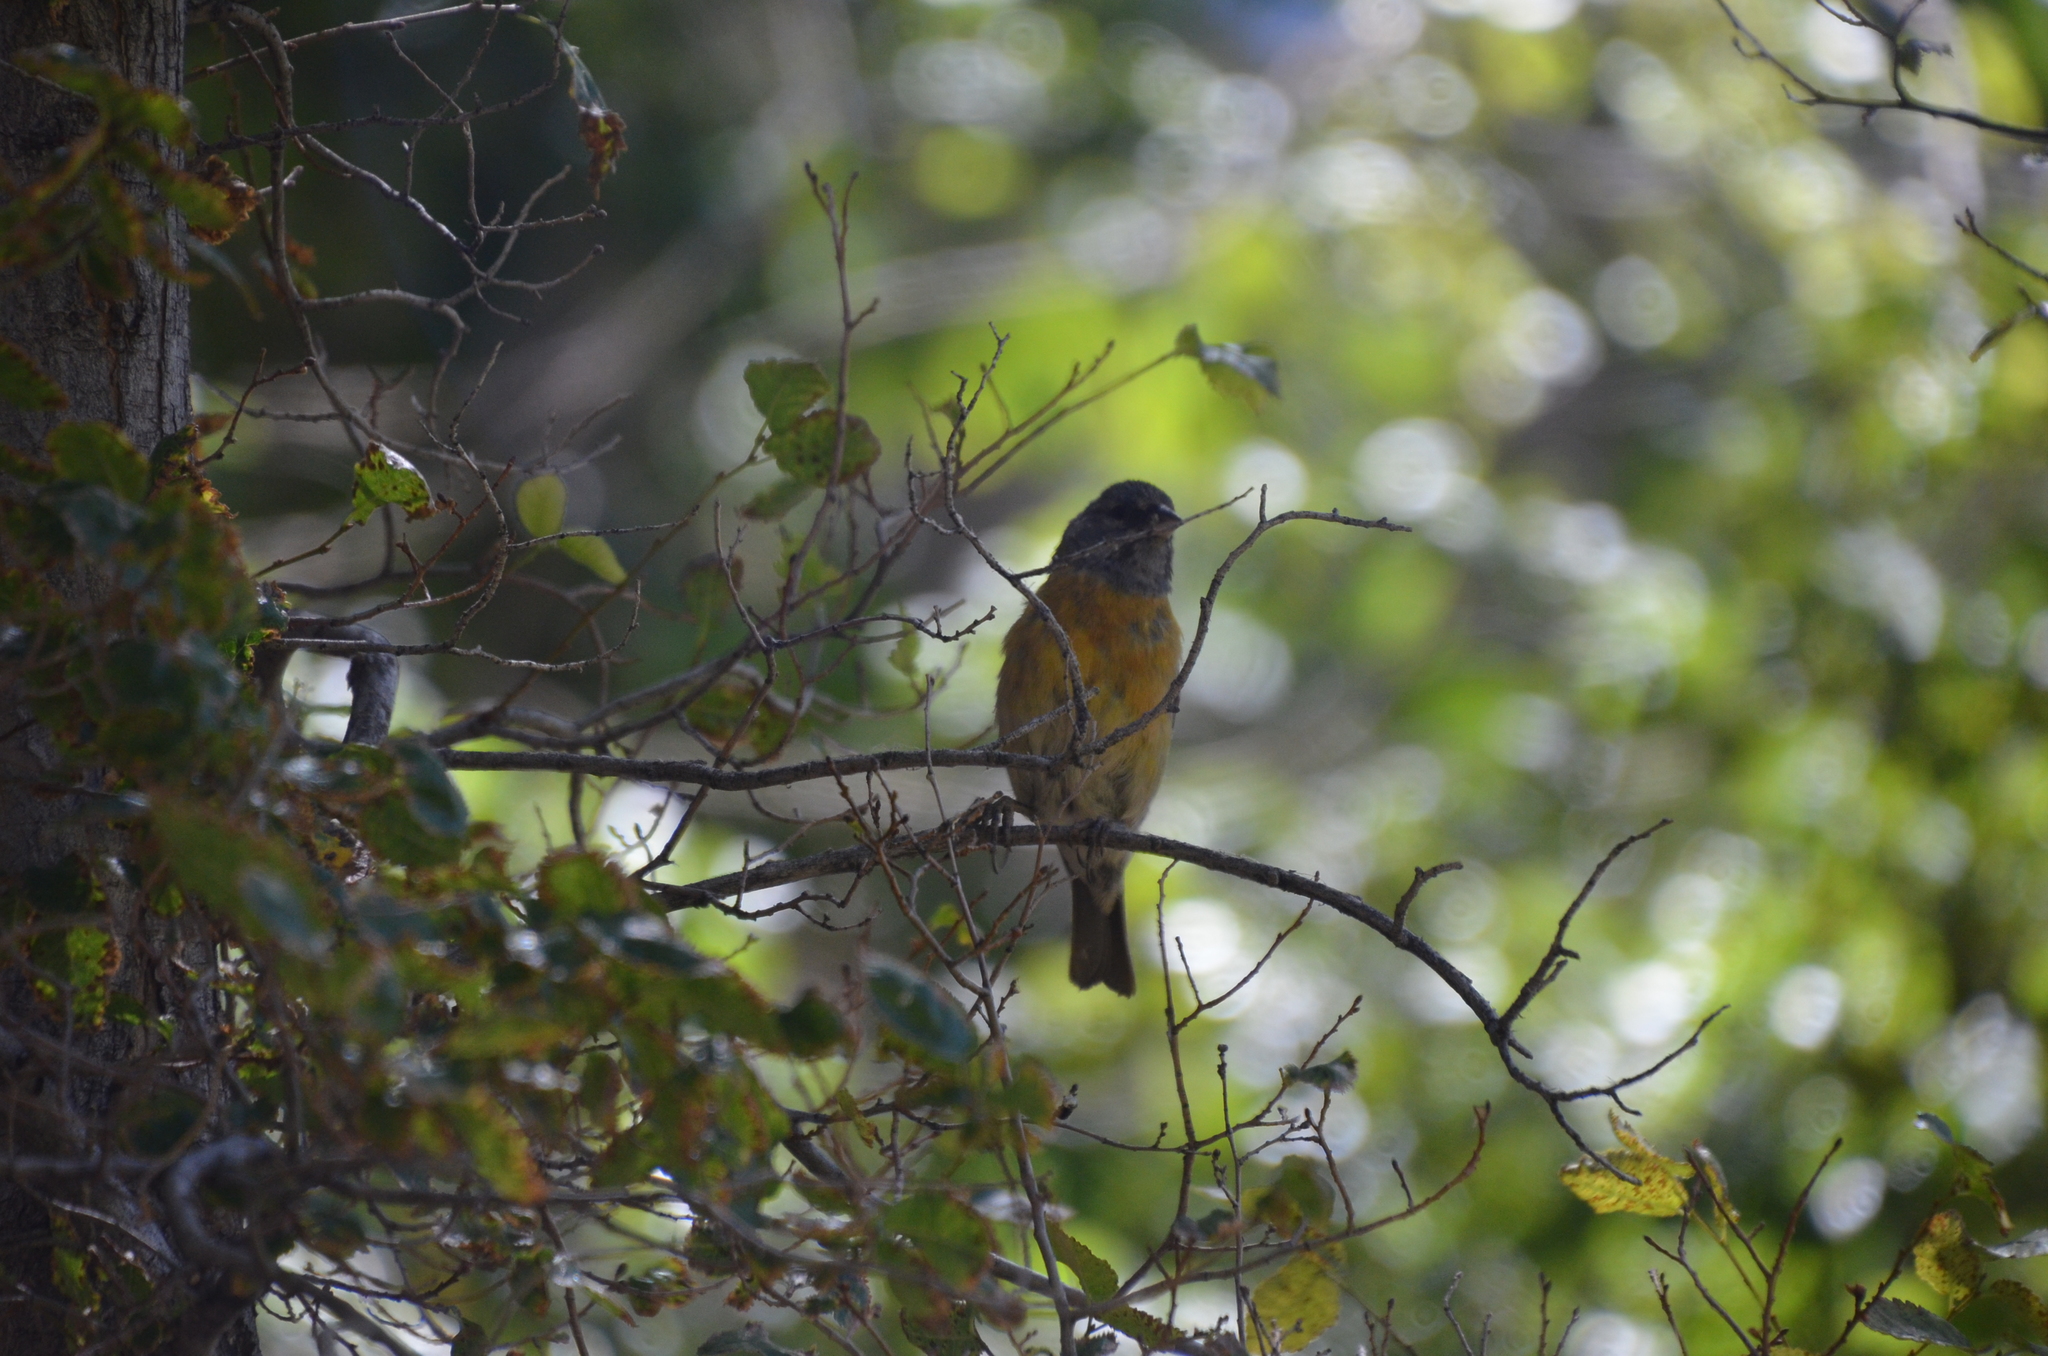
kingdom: Animalia
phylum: Chordata
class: Aves
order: Passeriformes
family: Thraupidae
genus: Phrygilus
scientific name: Phrygilus gayi
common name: Grey-hooded sierra finch
